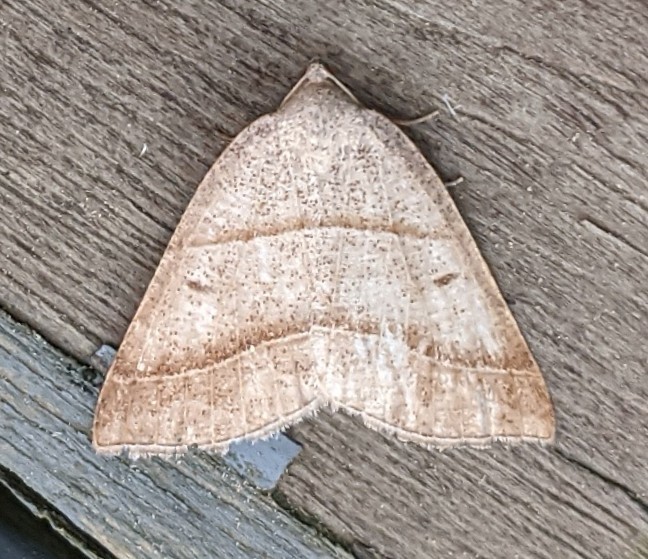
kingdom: Animalia
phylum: Arthropoda
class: Insecta
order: Lepidoptera
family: Pterophoridae
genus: Pterophorus
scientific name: Pterophorus Petrophora subaequaria
